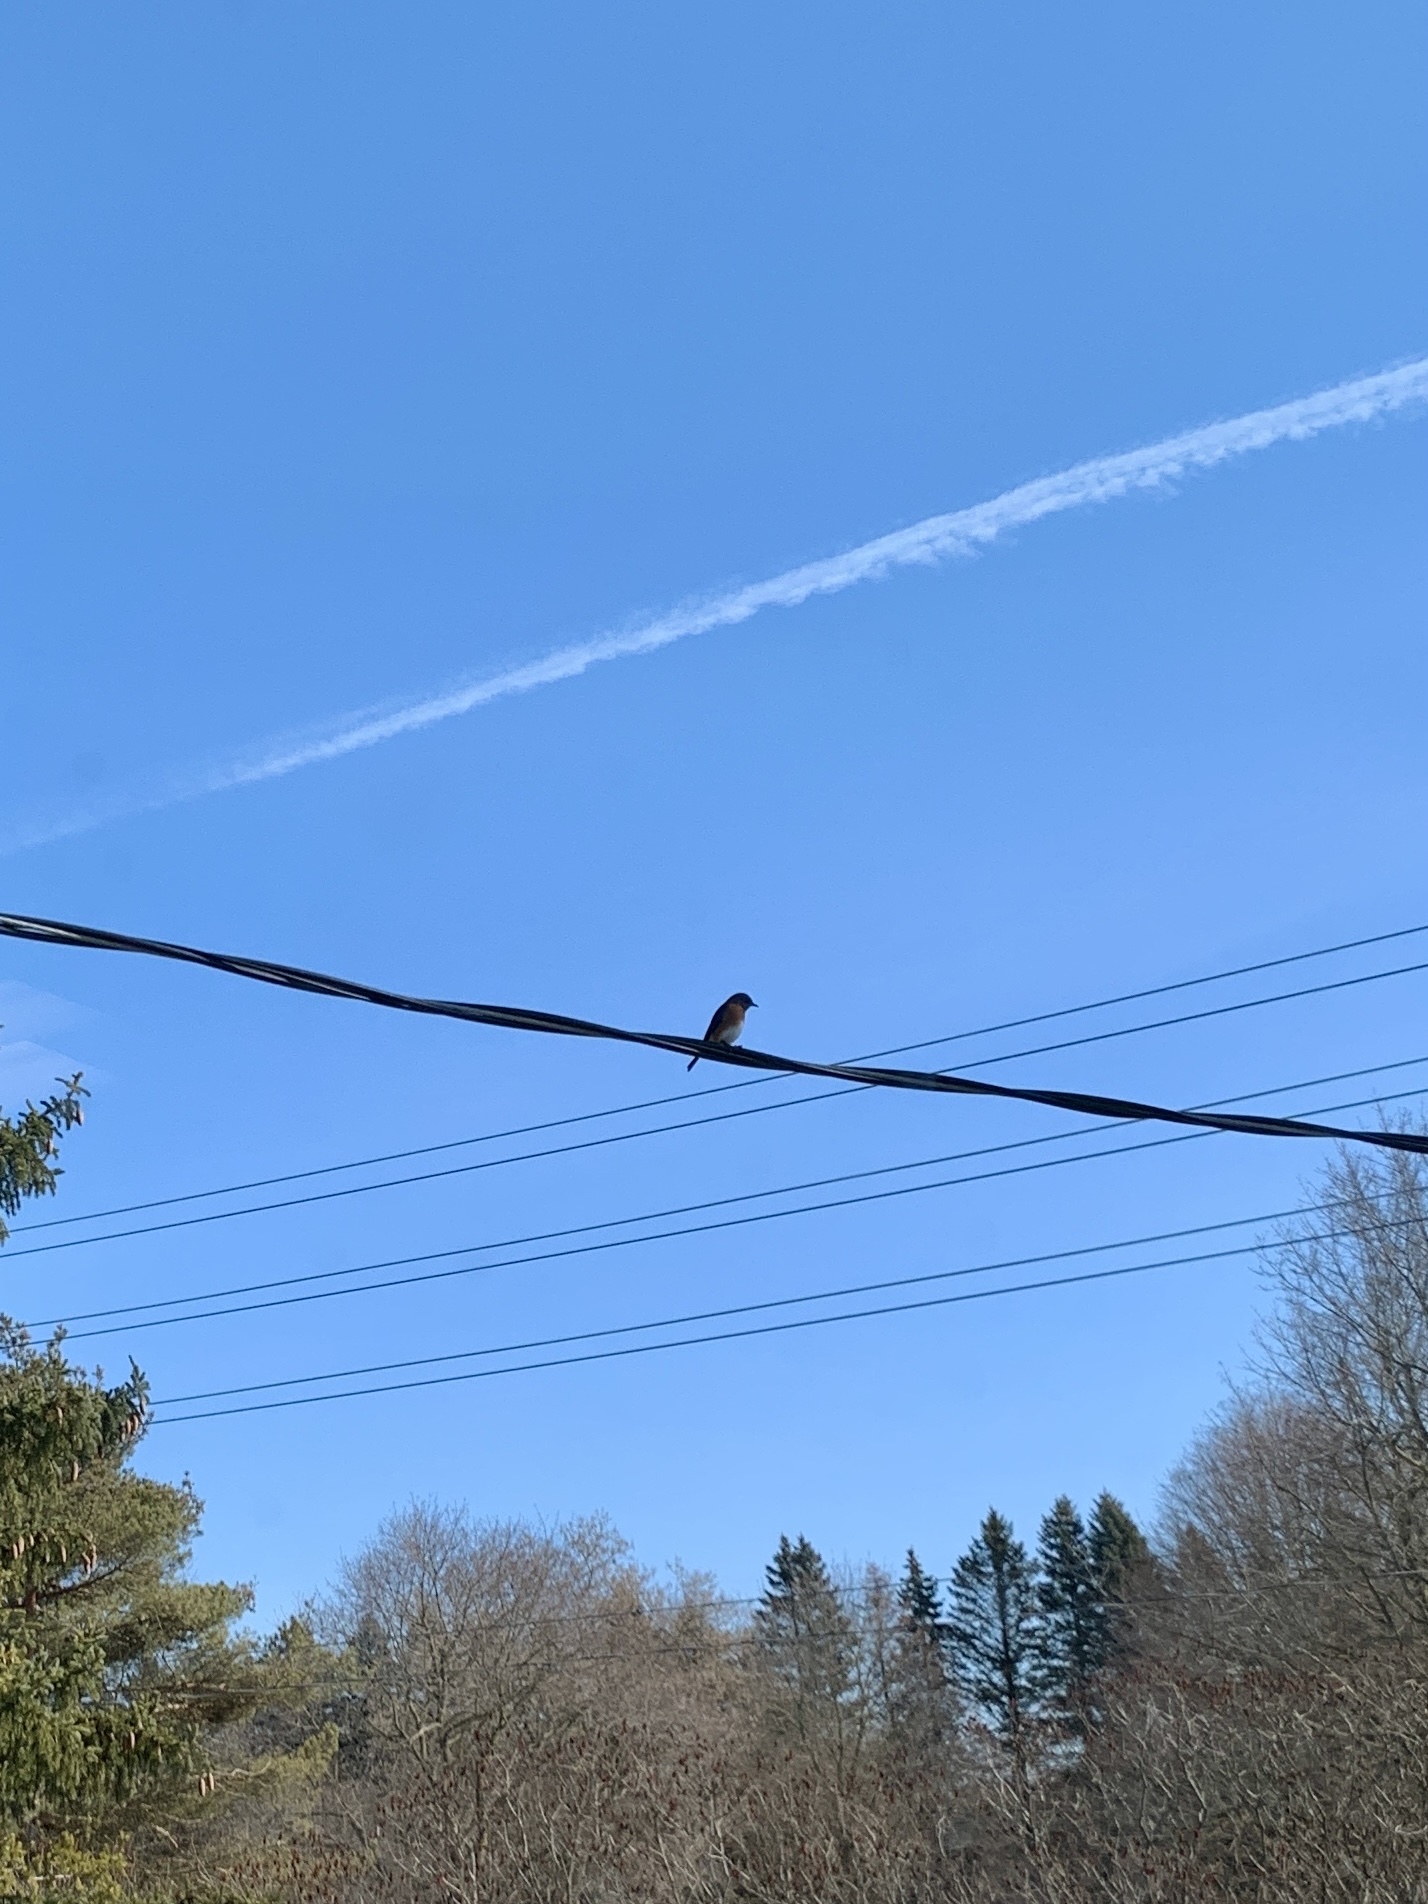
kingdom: Animalia
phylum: Chordata
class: Aves
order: Passeriformes
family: Turdidae
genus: Sialia
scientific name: Sialia sialis
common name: Eastern bluebird
